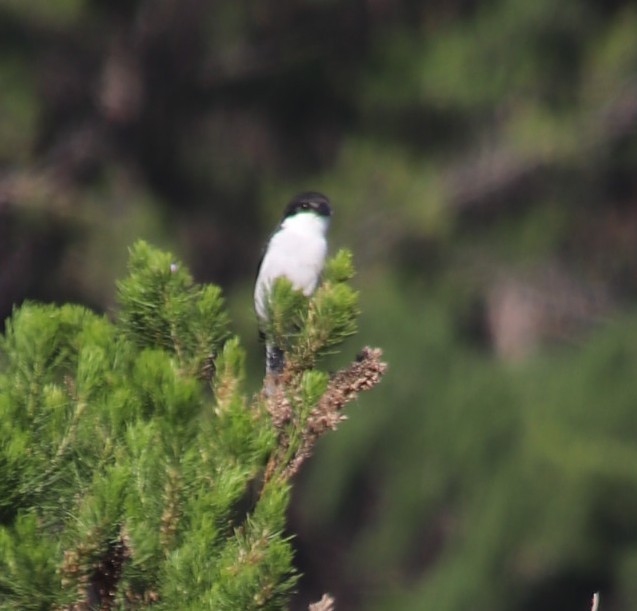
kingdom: Animalia
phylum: Chordata
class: Aves
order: Passeriformes
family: Laniidae
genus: Lanius
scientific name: Lanius collaris
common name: Southern fiscal
